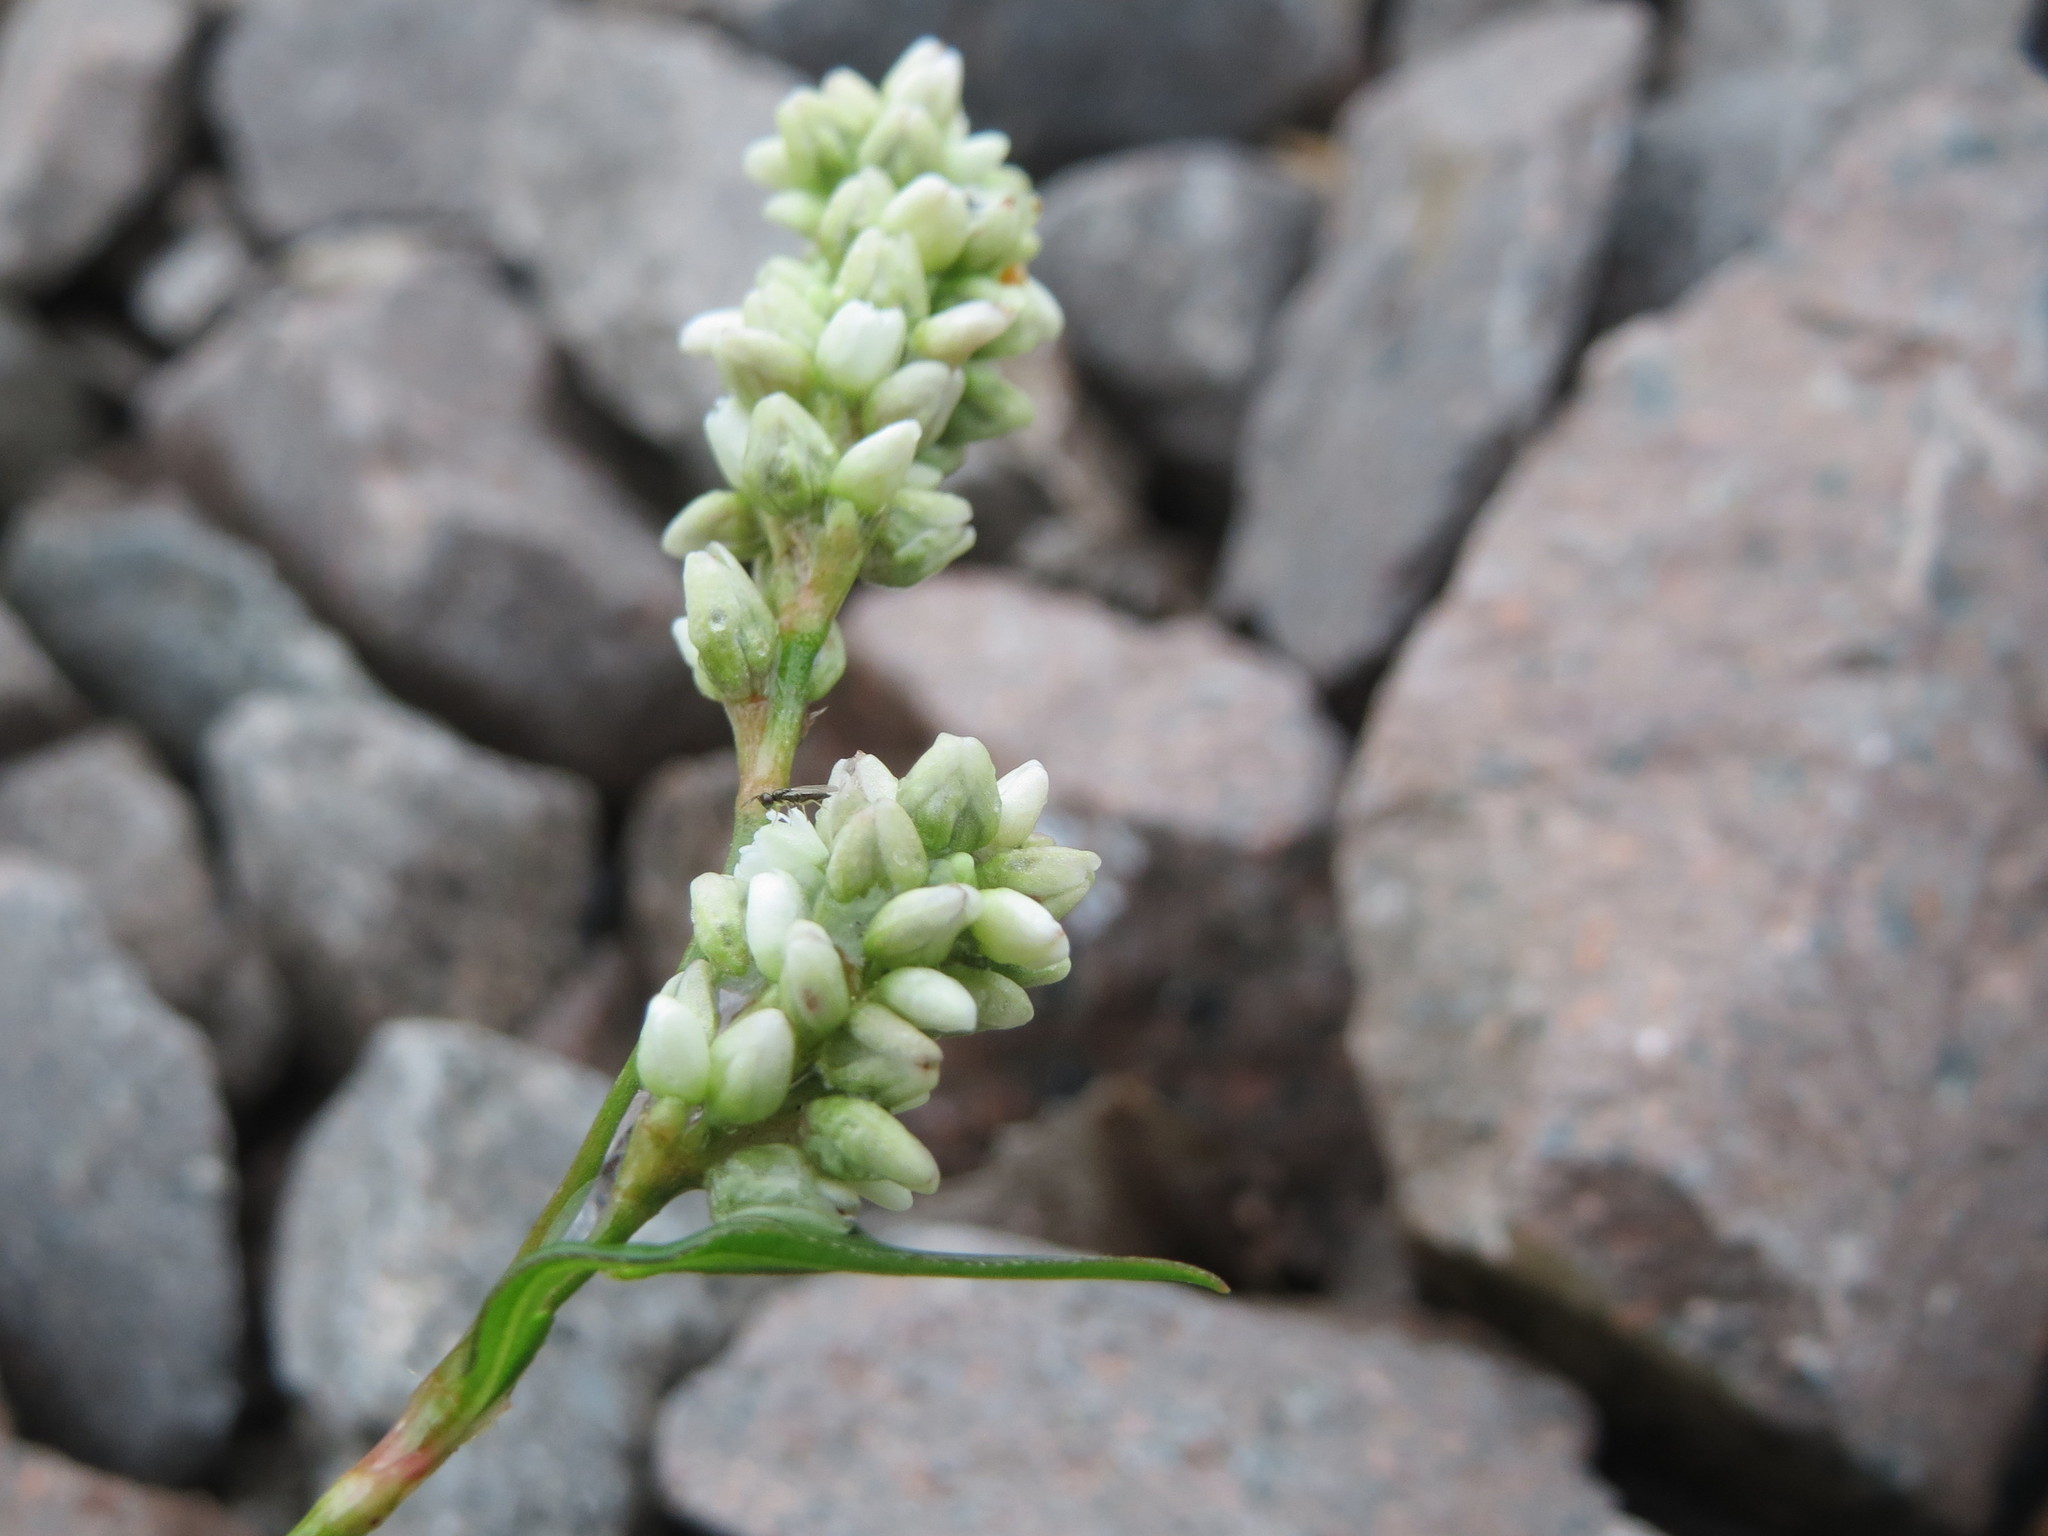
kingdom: Plantae
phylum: Tracheophyta
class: Magnoliopsida
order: Caryophyllales
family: Polygonaceae
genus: Persicaria
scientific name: Persicaria lapathifolia
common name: Curlytop knotweed
